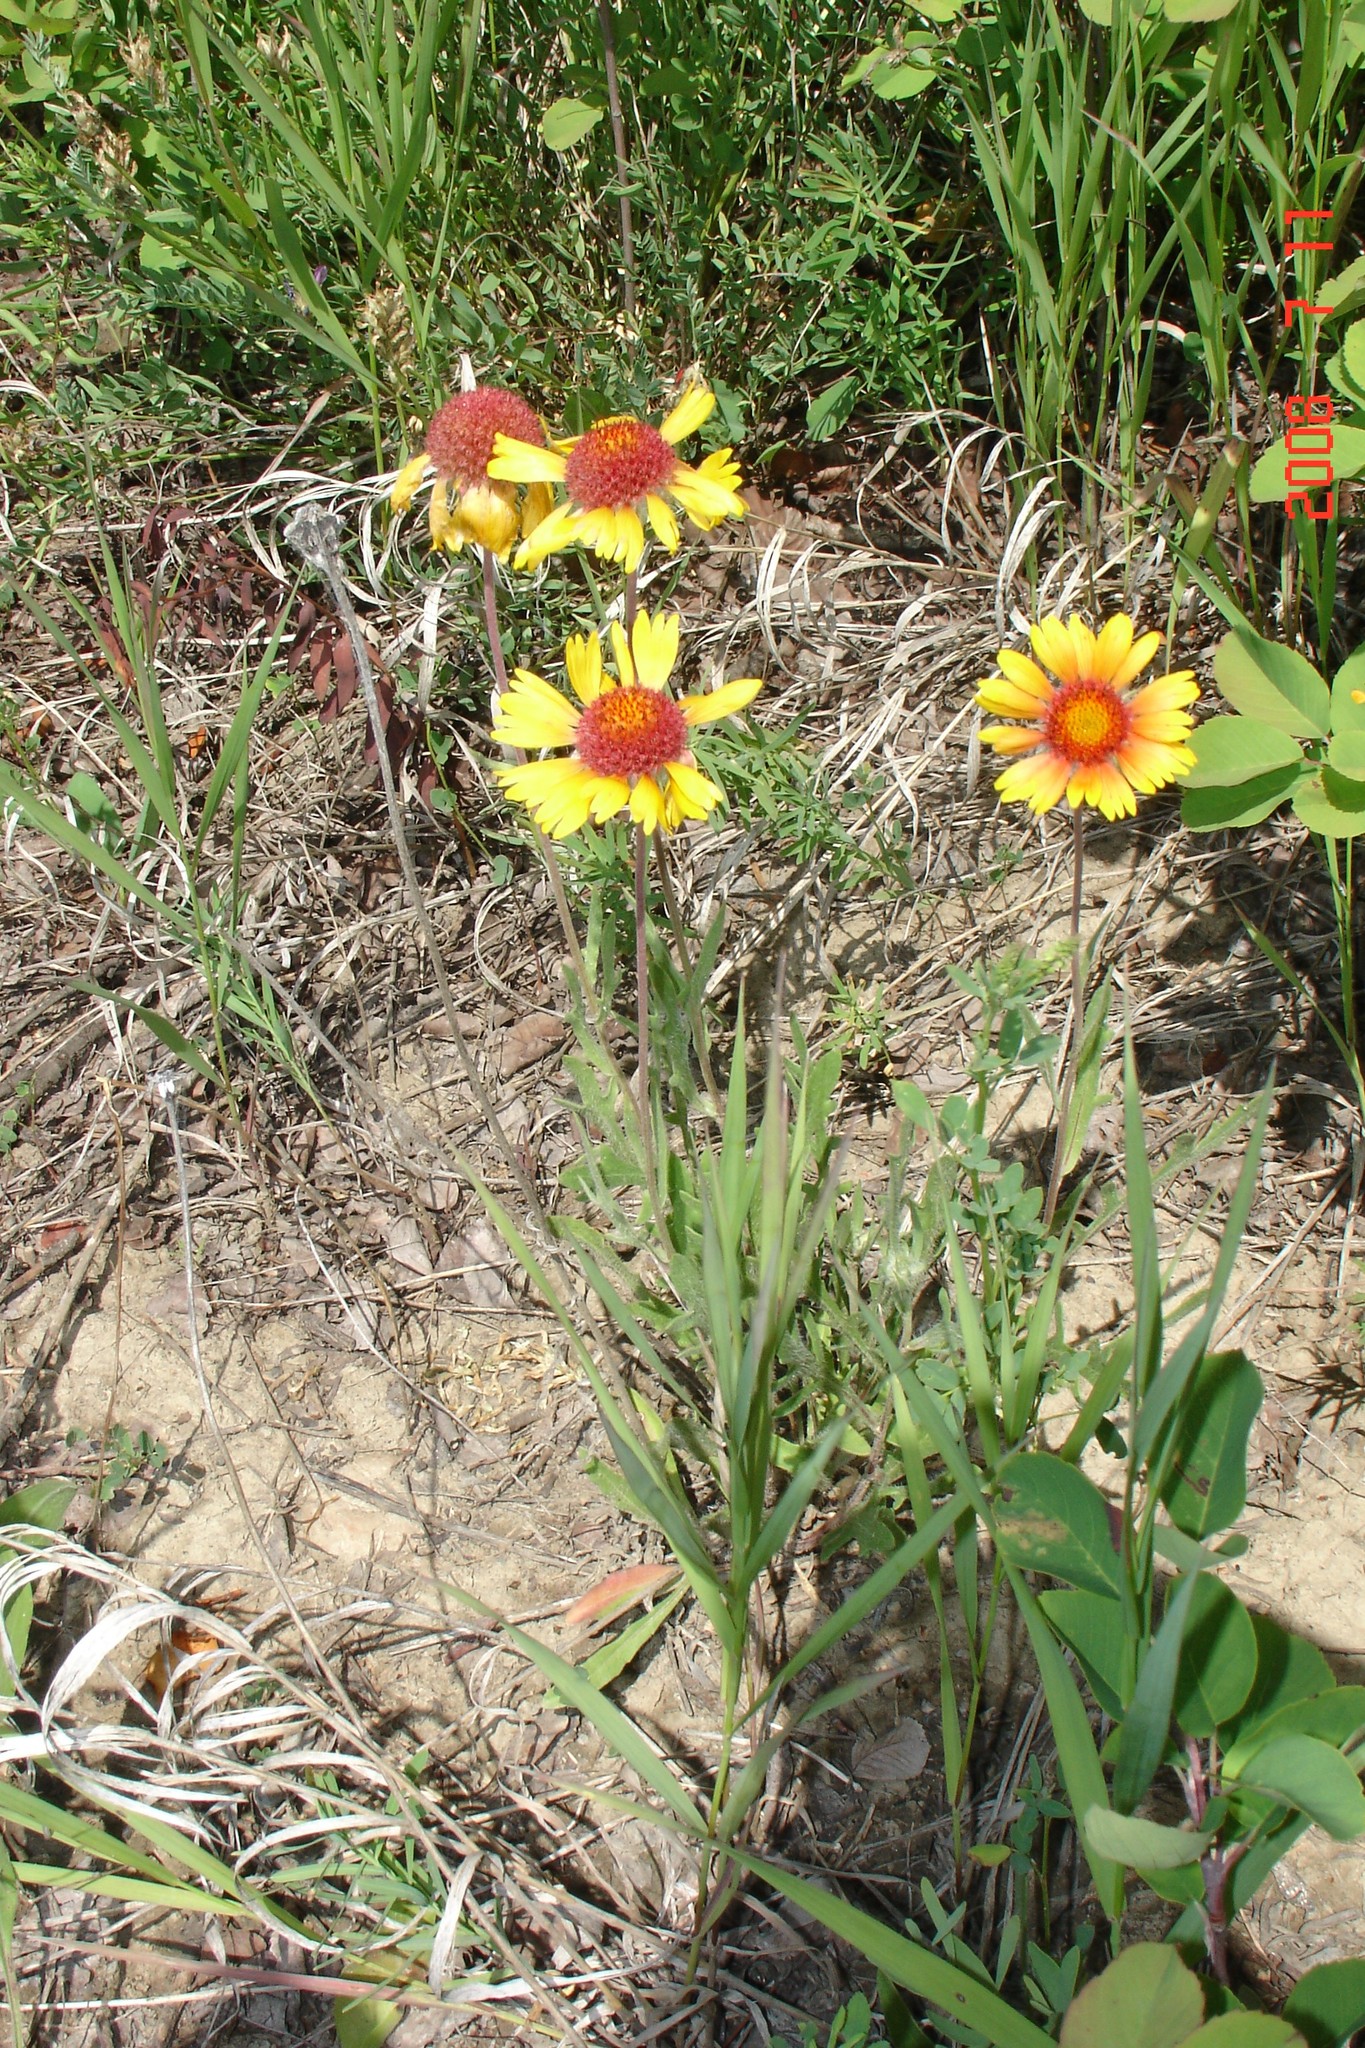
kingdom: Plantae
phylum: Tracheophyta
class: Magnoliopsida
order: Asterales
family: Asteraceae
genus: Gaillardia
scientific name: Gaillardia aristata
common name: Blanket-flower
